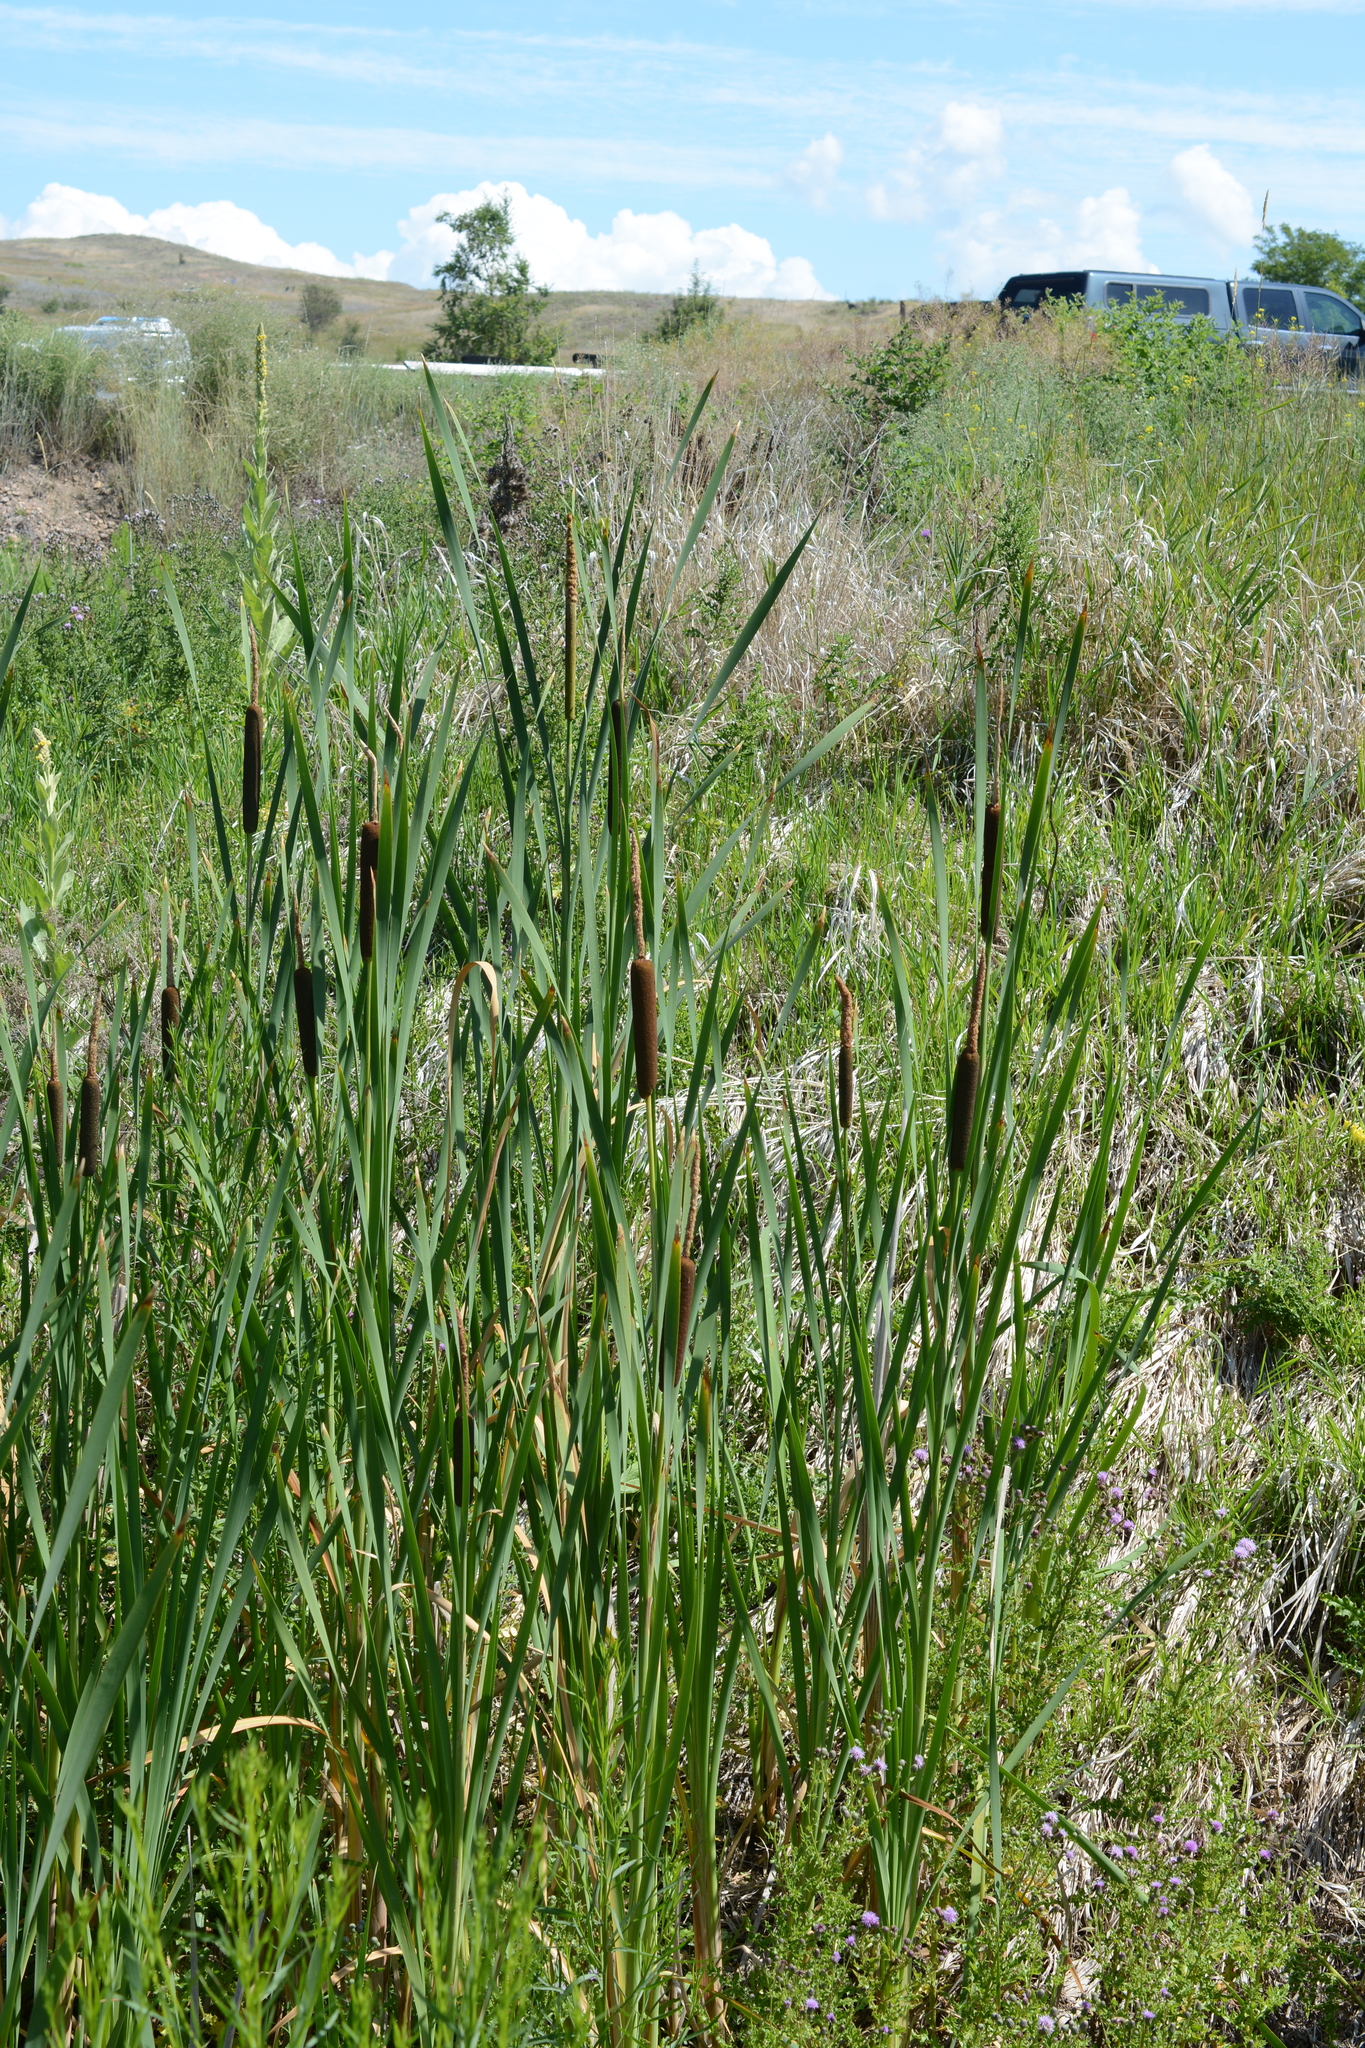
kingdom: Plantae
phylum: Tracheophyta
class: Liliopsida
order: Poales
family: Typhaceae
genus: Typha
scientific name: Typha latifolia
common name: Broadleaf cattail
